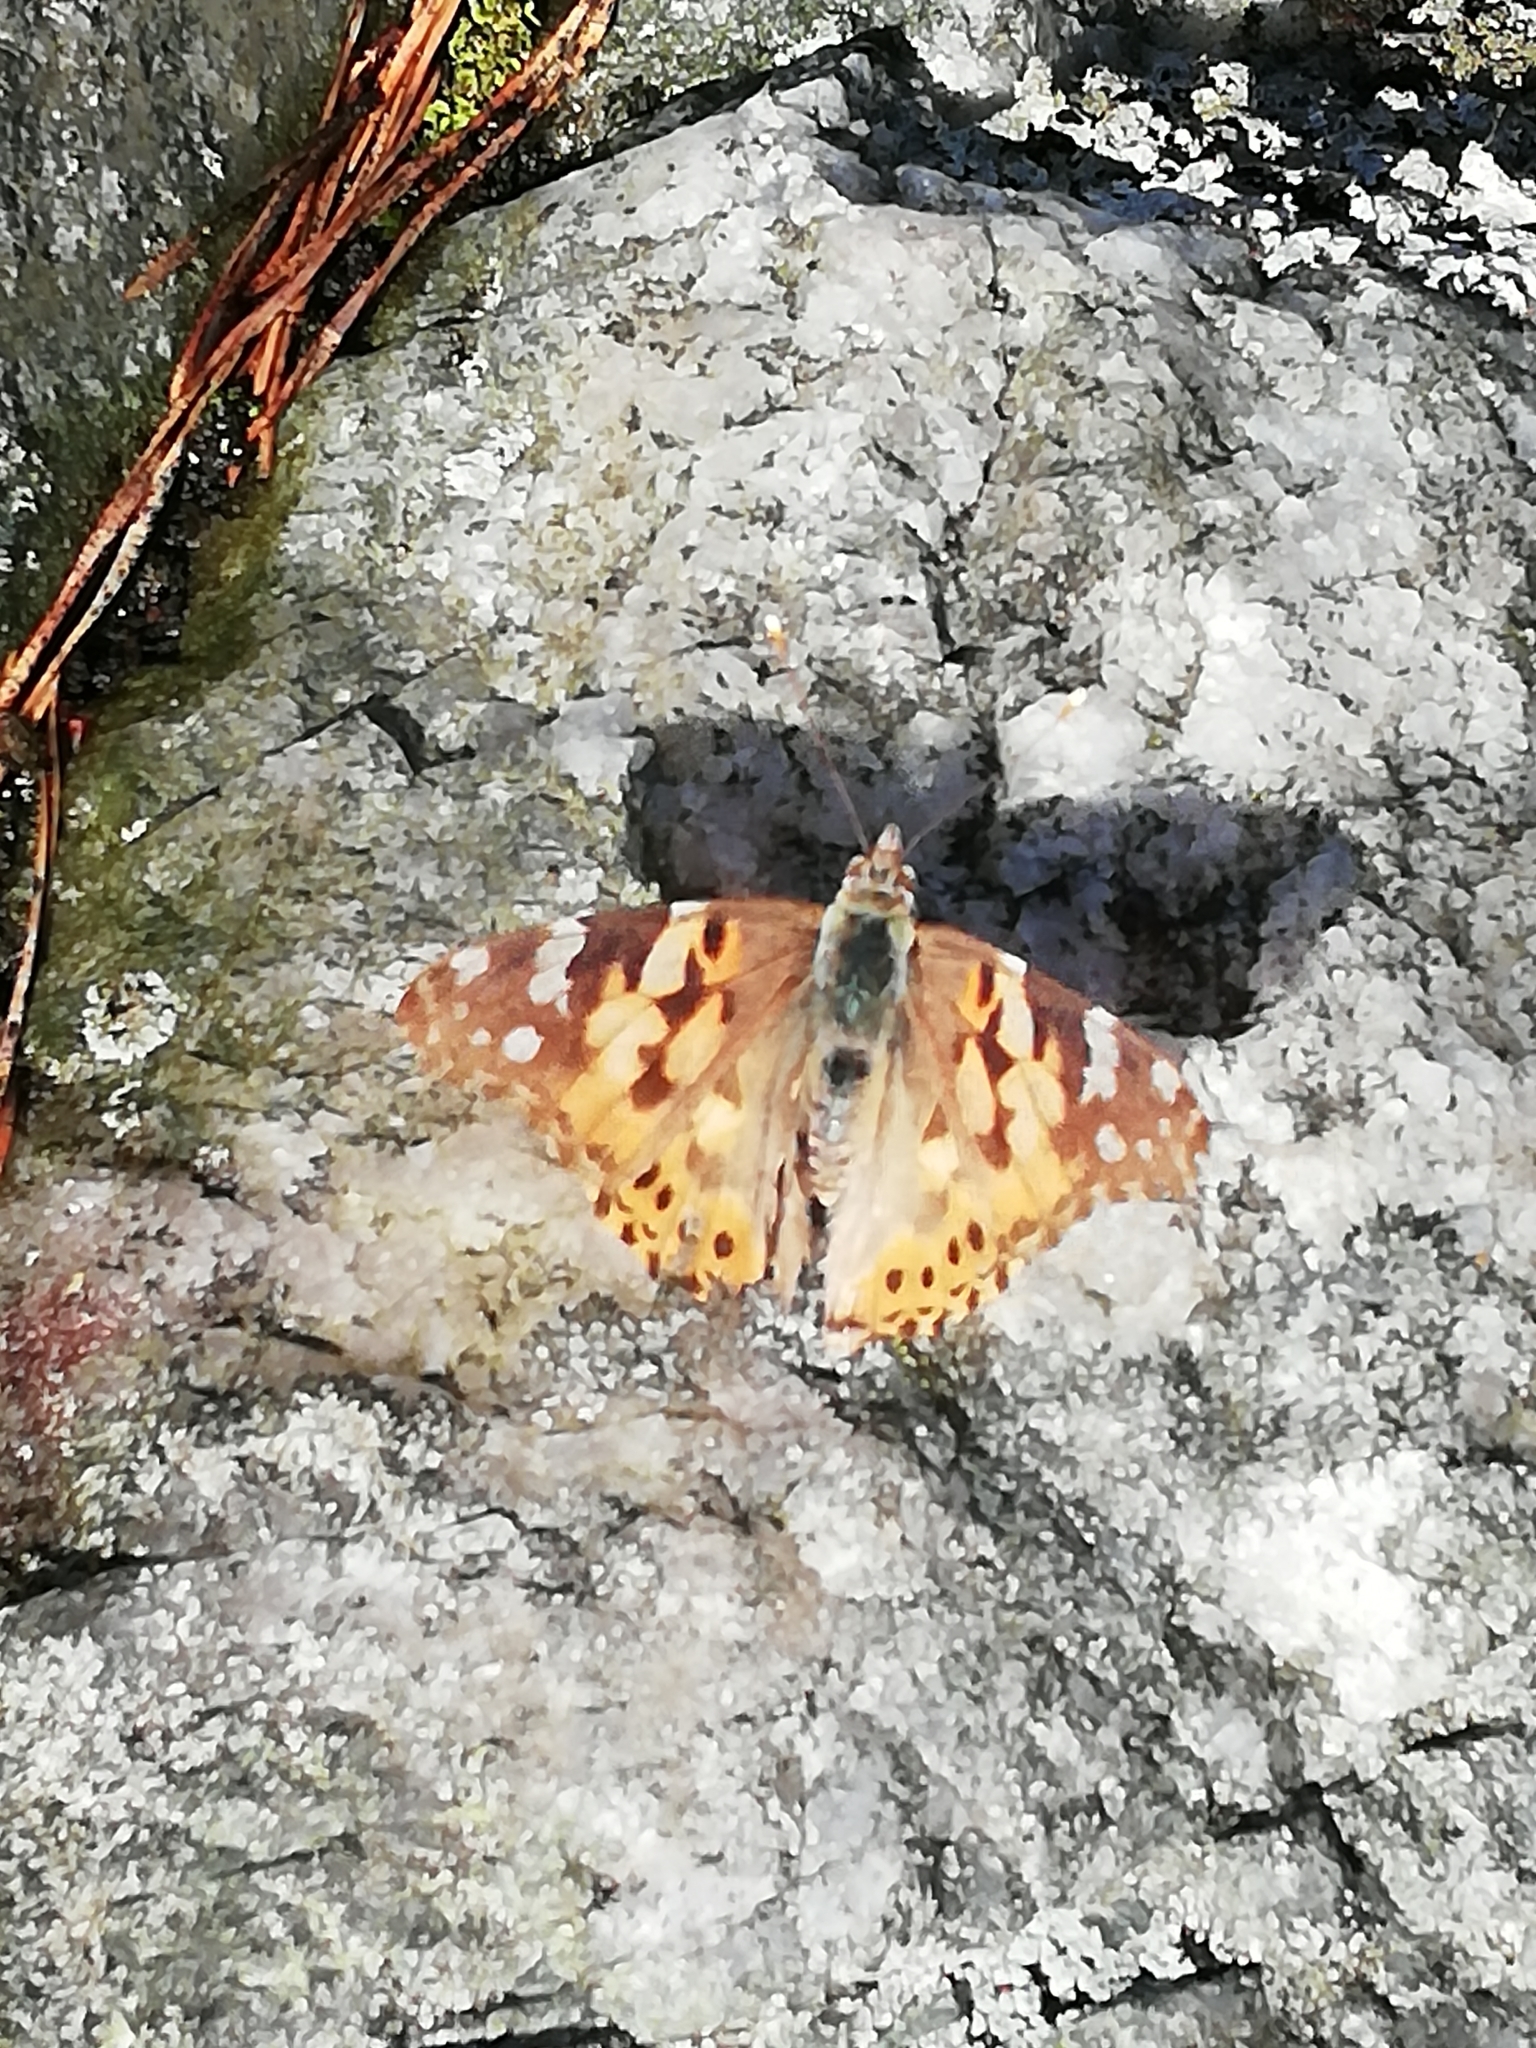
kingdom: Animalia
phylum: Arthropoda
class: Insecta
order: Lepidoptera
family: Nymphalidae
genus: Vanessa
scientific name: Vanessa cardui
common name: Painted lady
